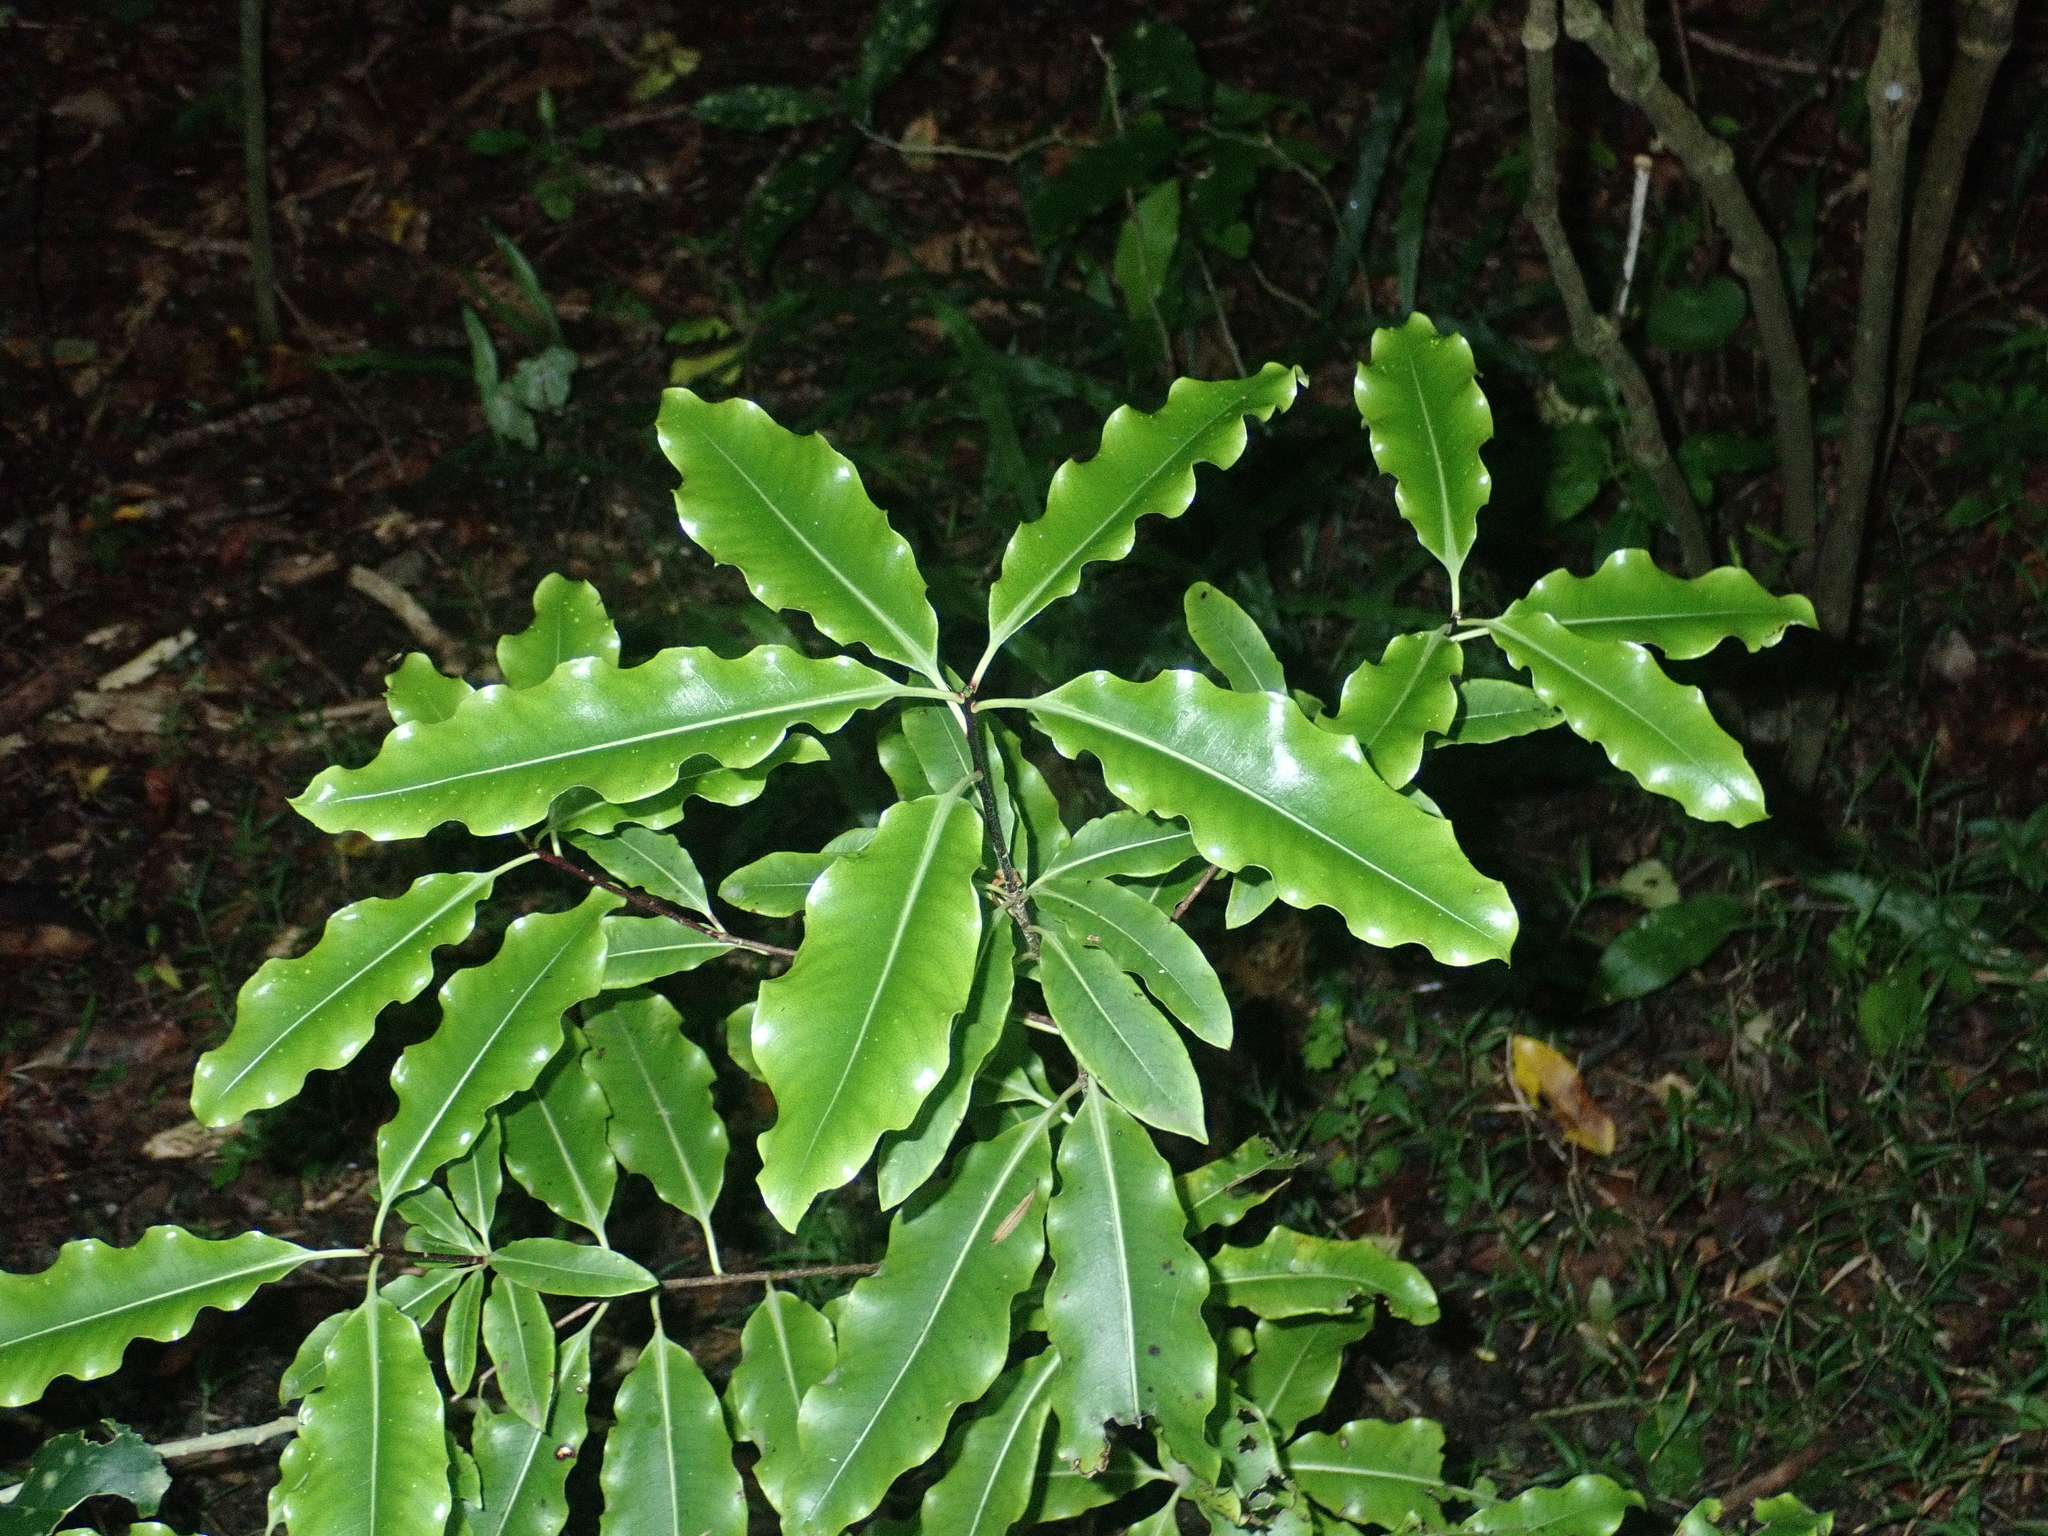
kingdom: Plantae
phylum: Tracheophyta
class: Magnoliopsida
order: Apiales
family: Pittosporaceae
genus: Pittosporum
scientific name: Pittosporum eugenioides
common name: Lemonwood
